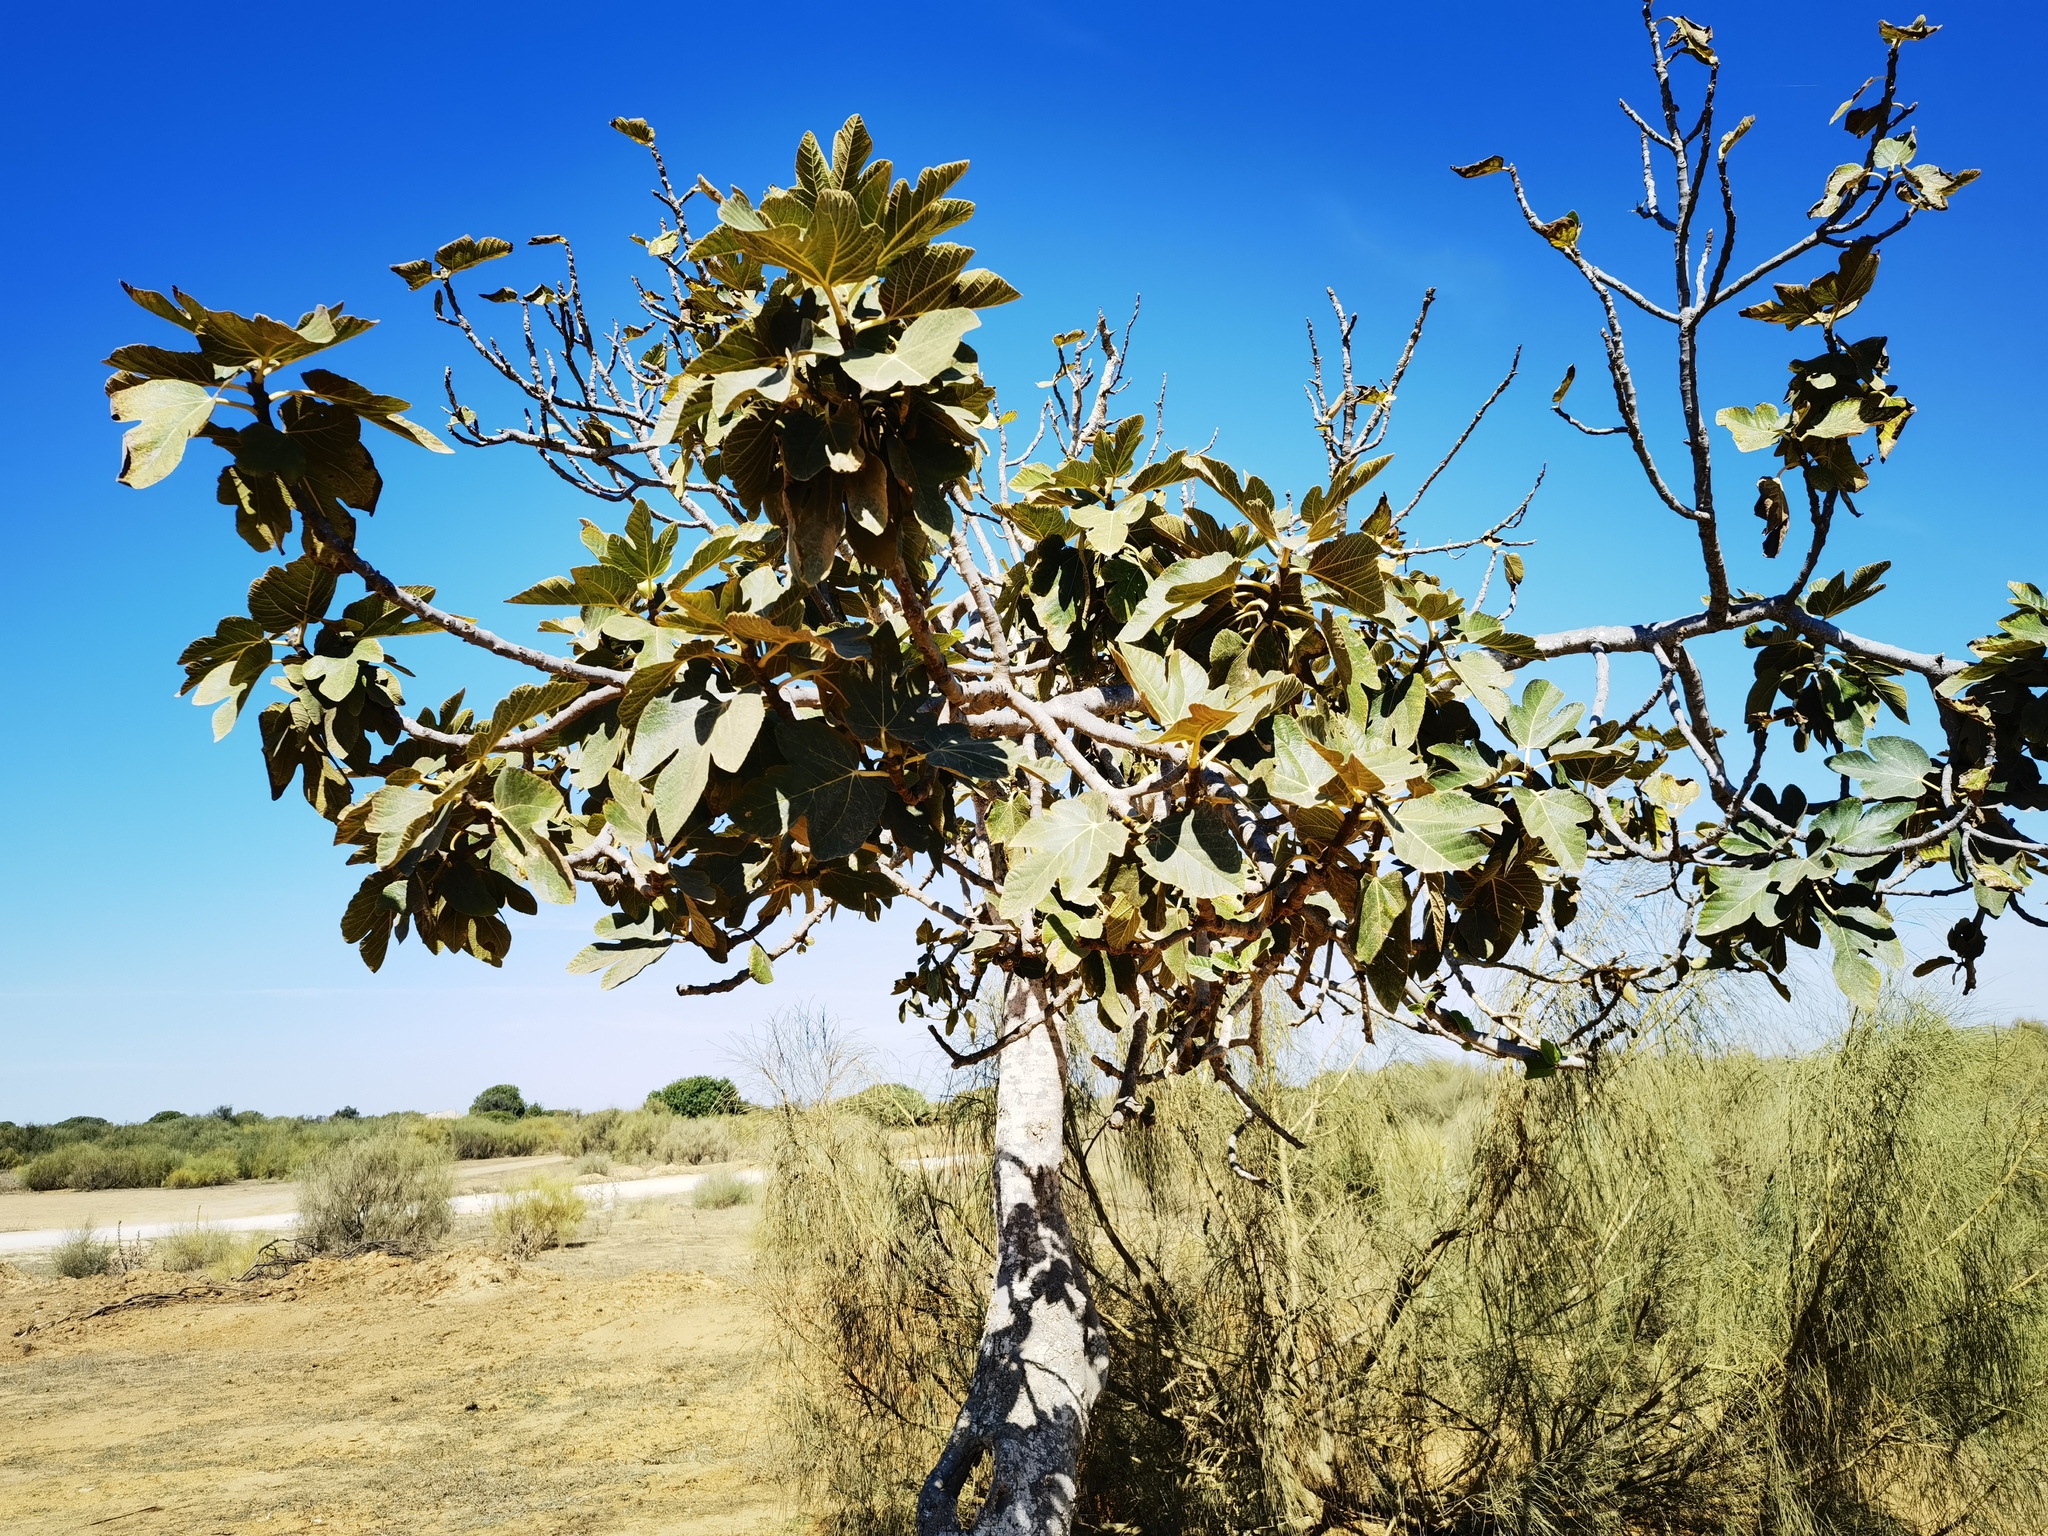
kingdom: Plantae
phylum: Tracheophyta
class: Magnoliopsida
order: Rosales
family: Moraceae
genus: Ficus
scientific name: Ficus carica
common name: Fig
